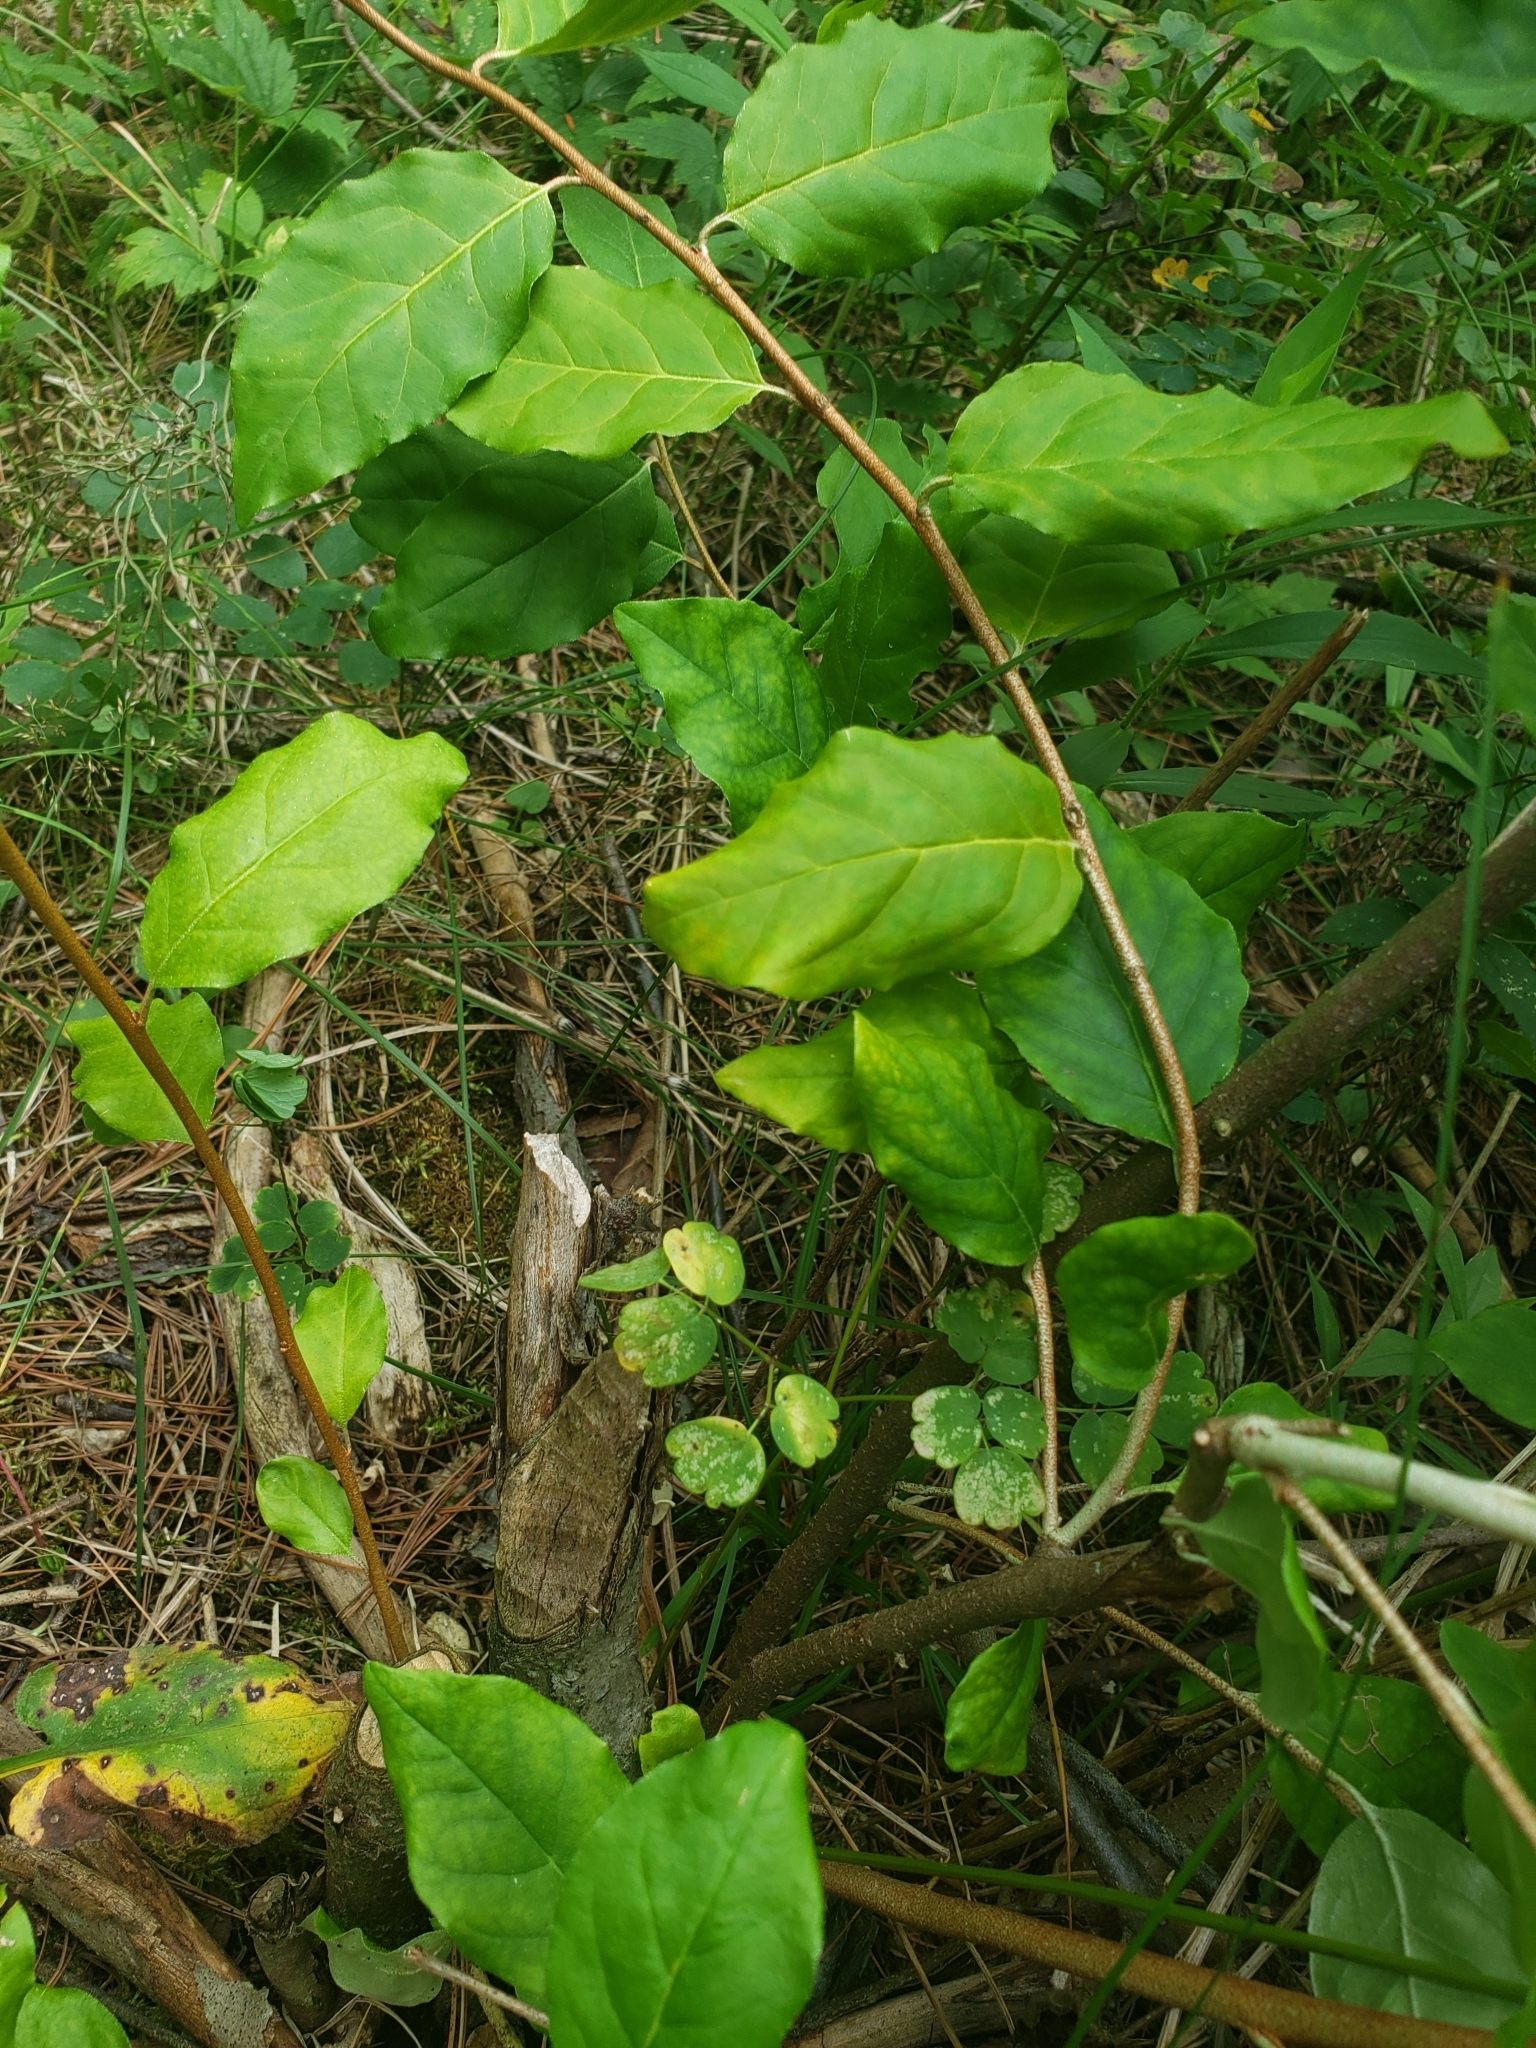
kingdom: Plantae
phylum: Tracheophyta
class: Magnoliopsida
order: Rosales
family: Elaeagnaceae
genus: Elaeagnus
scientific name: Elaeagnus umbellata
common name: Autumn olive
